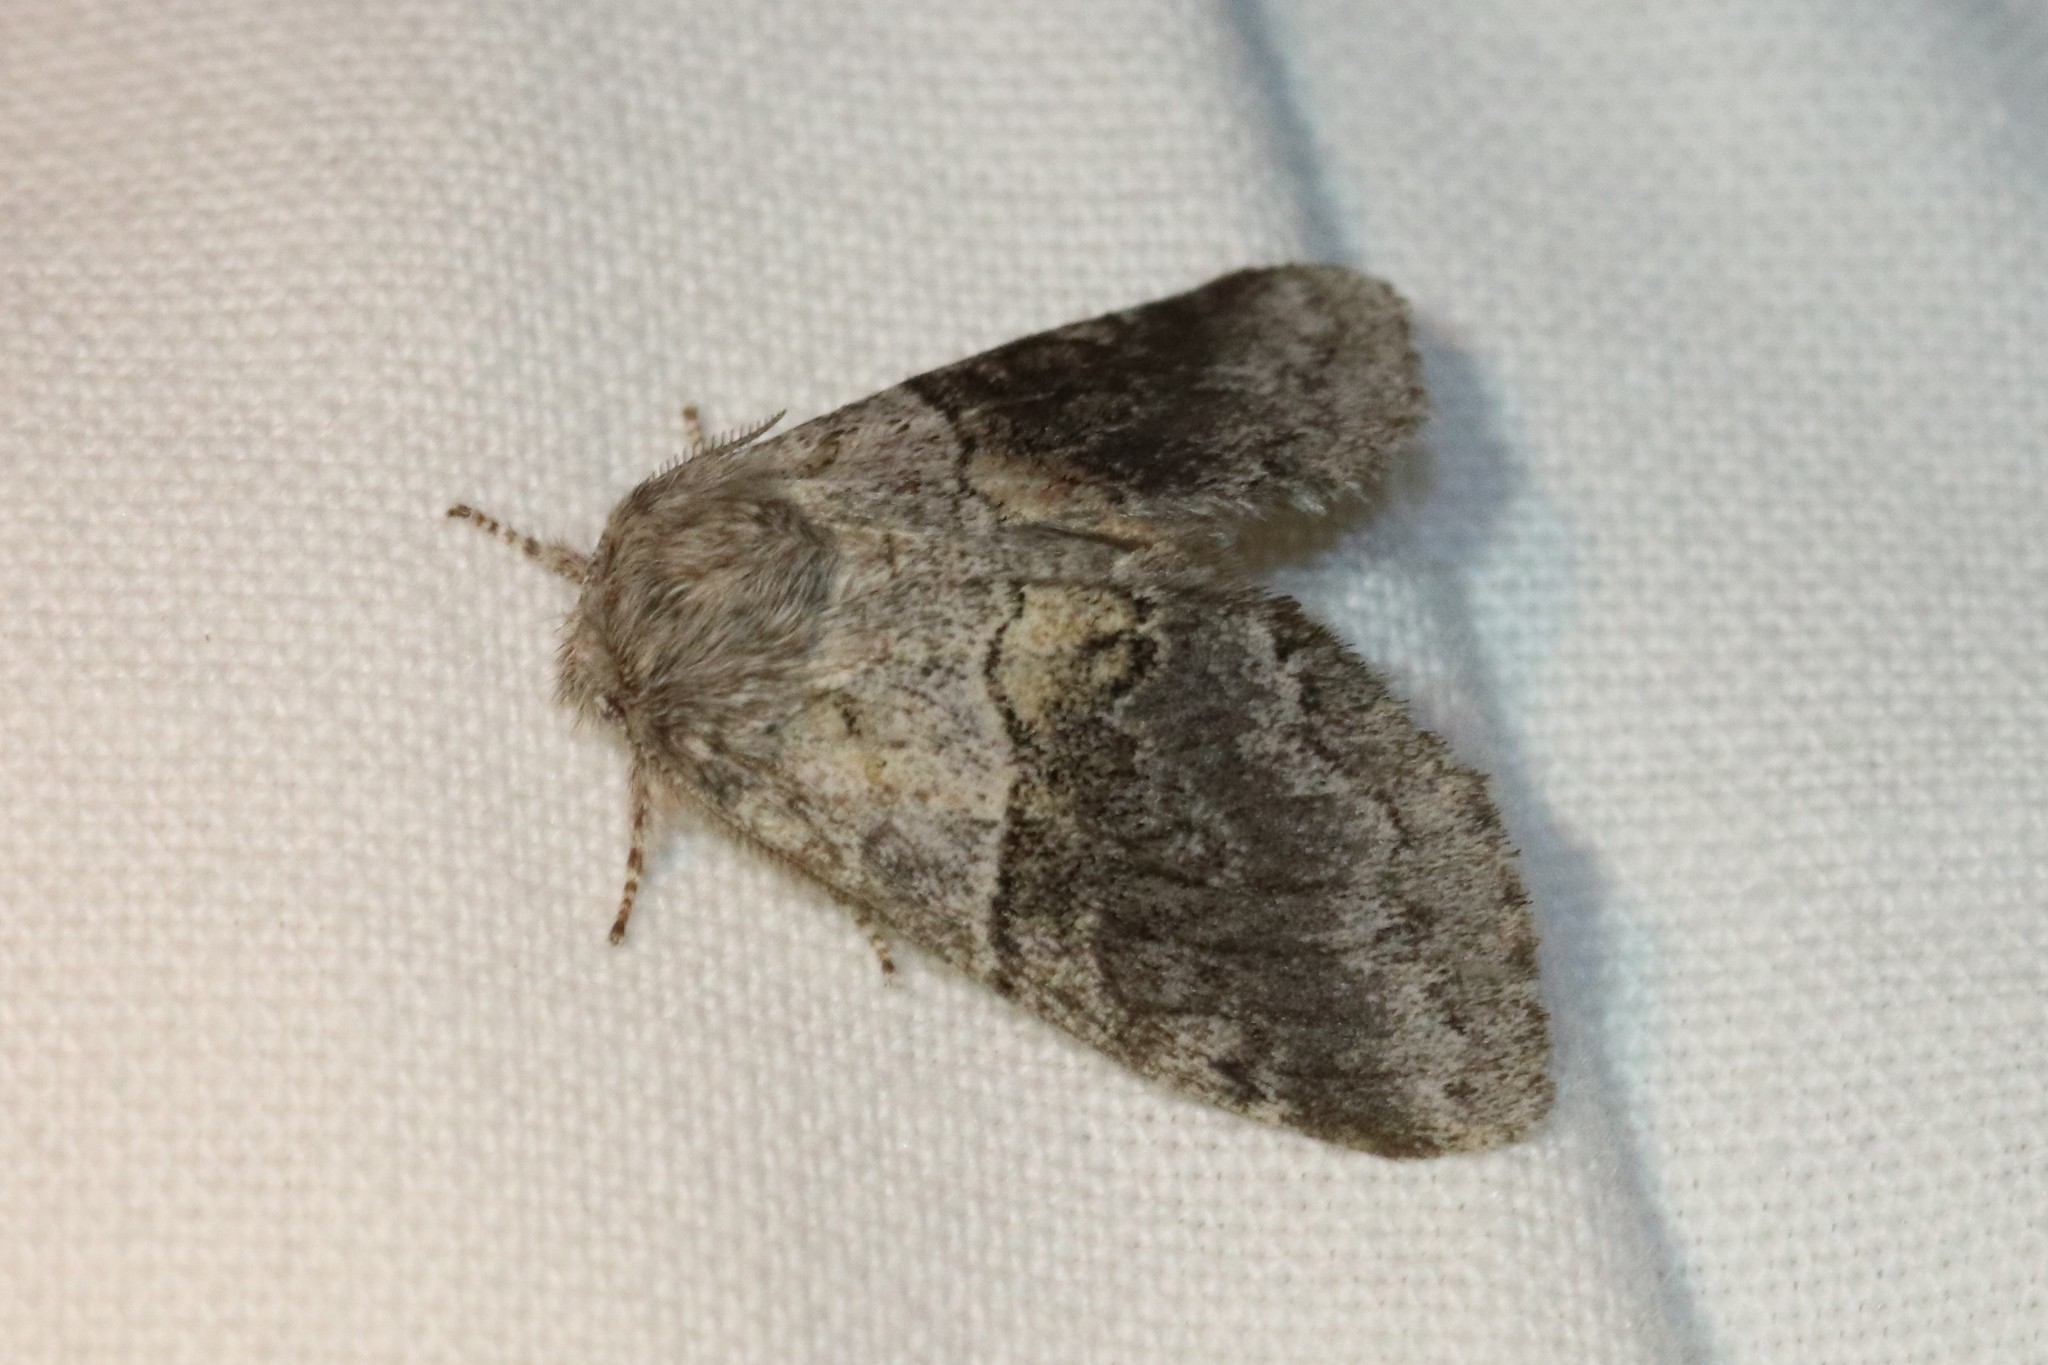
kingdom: Animalia
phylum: Arthropoda
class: Insecta
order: Lepidoptera
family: Notodontidae
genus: Gluphisia
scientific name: Gluphisia septentrionis
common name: Common gluphisia
